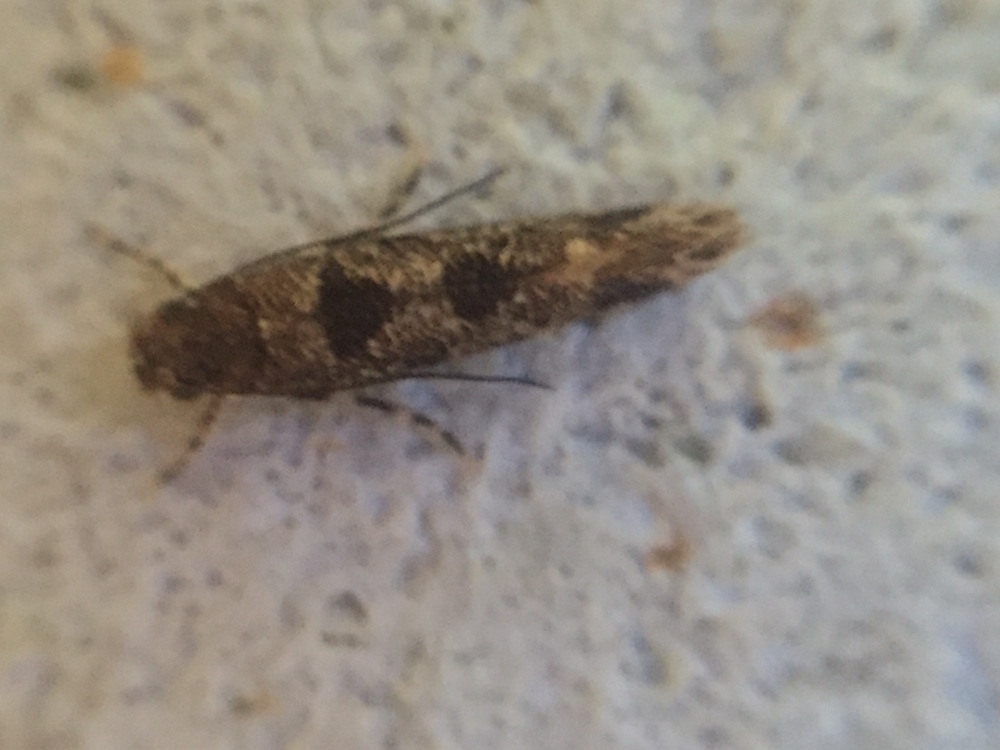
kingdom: Animalia
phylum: Arthropoda
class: Insecta
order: Lepidoptera
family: Tineidae
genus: Parochmastis
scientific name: Parochmastis hilderi
